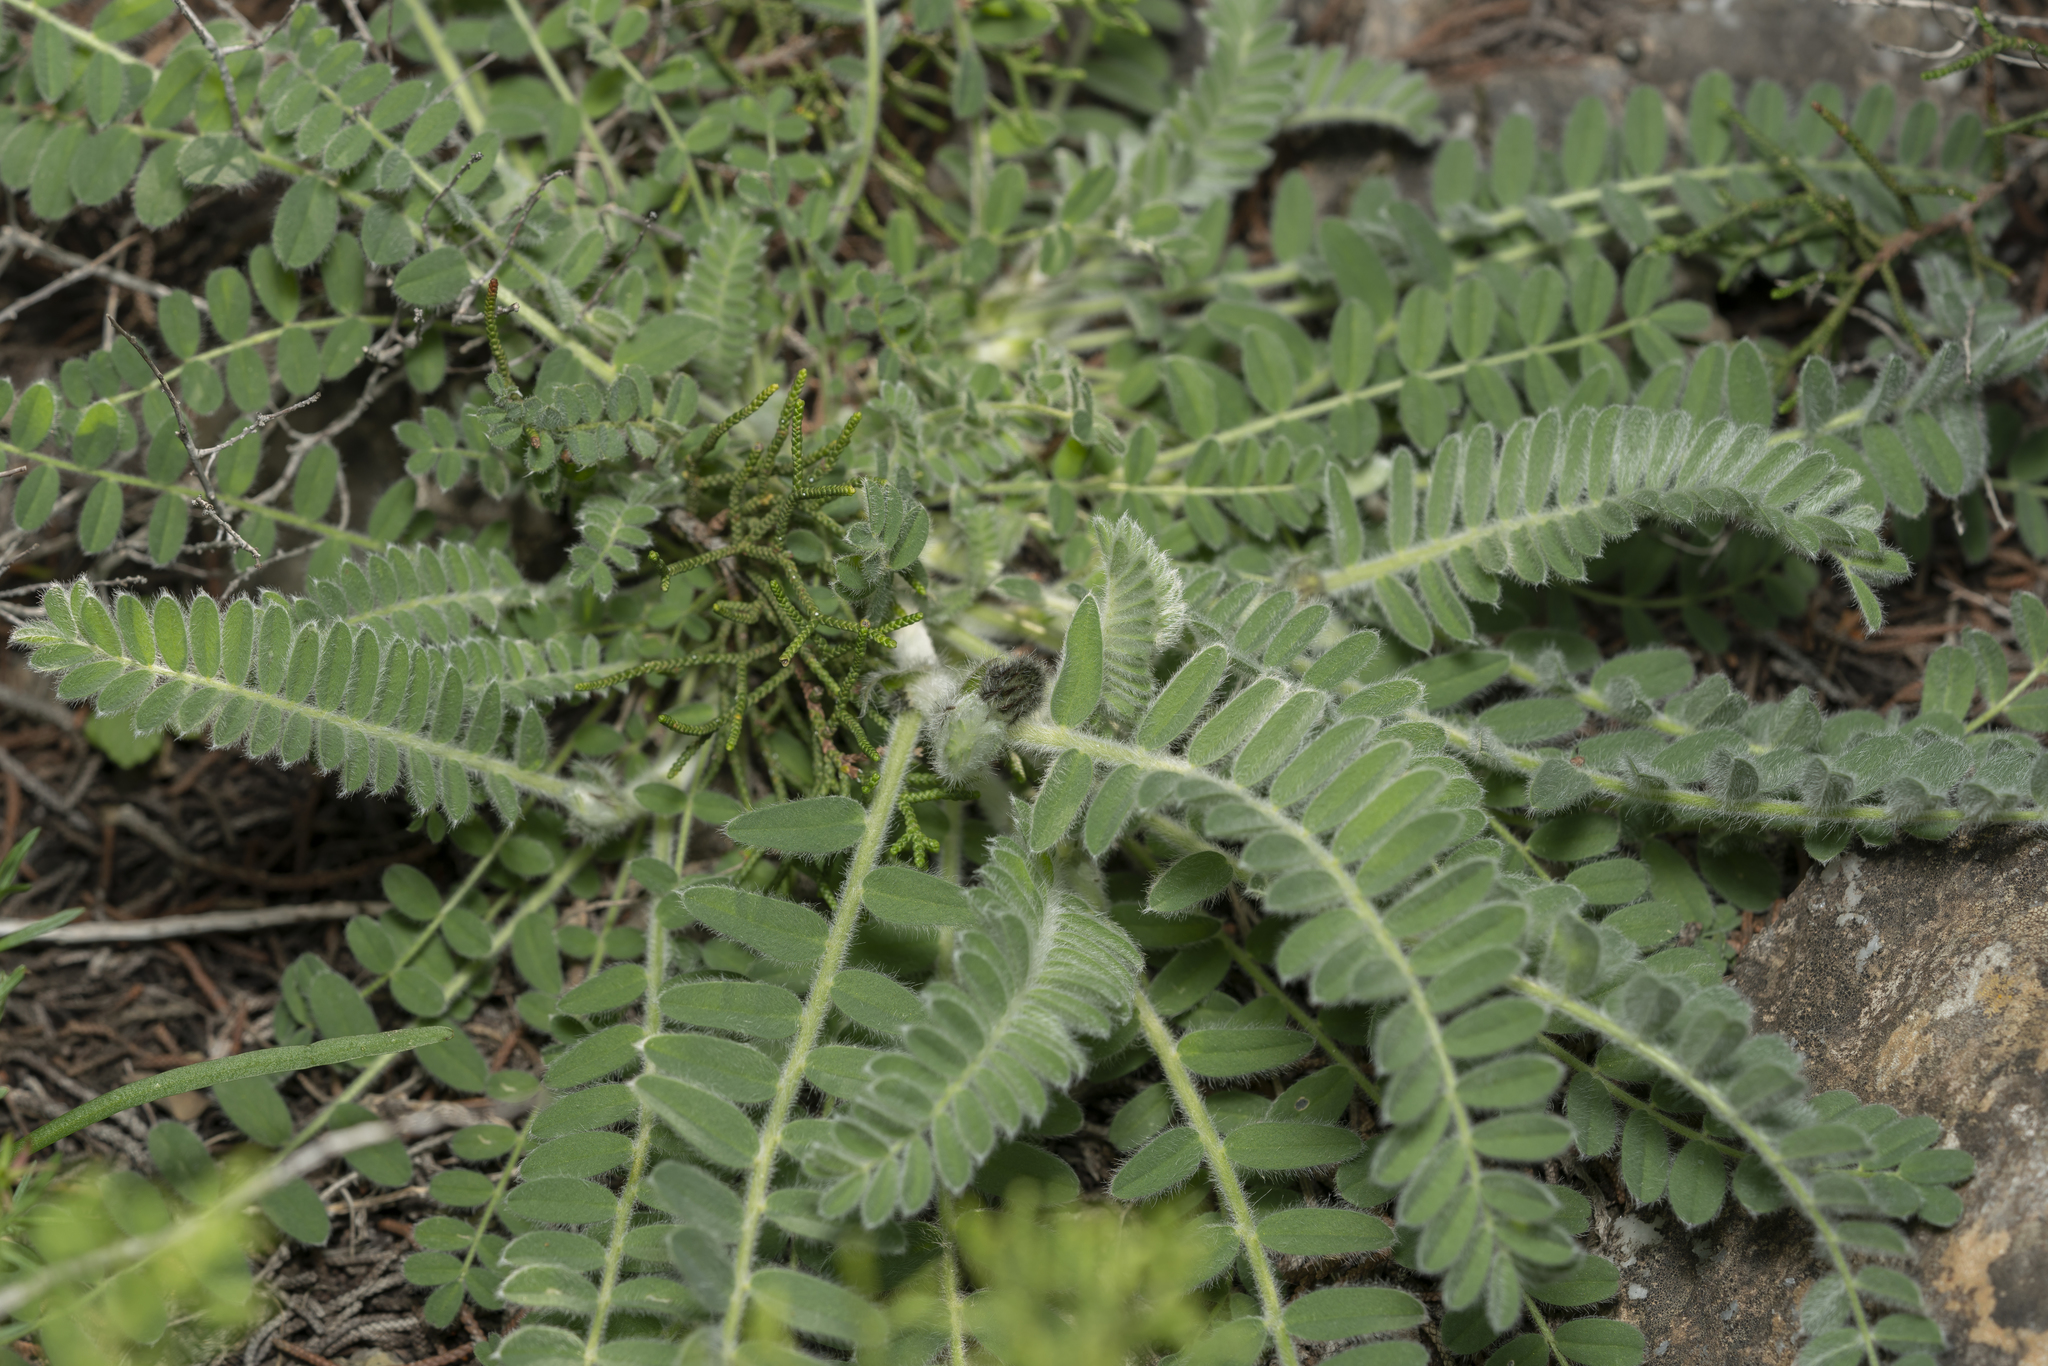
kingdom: Plantae
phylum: Tracheophyta
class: Magnoliopsida
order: Fabales
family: Fabaceae
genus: Astragalus
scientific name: Astragalus
